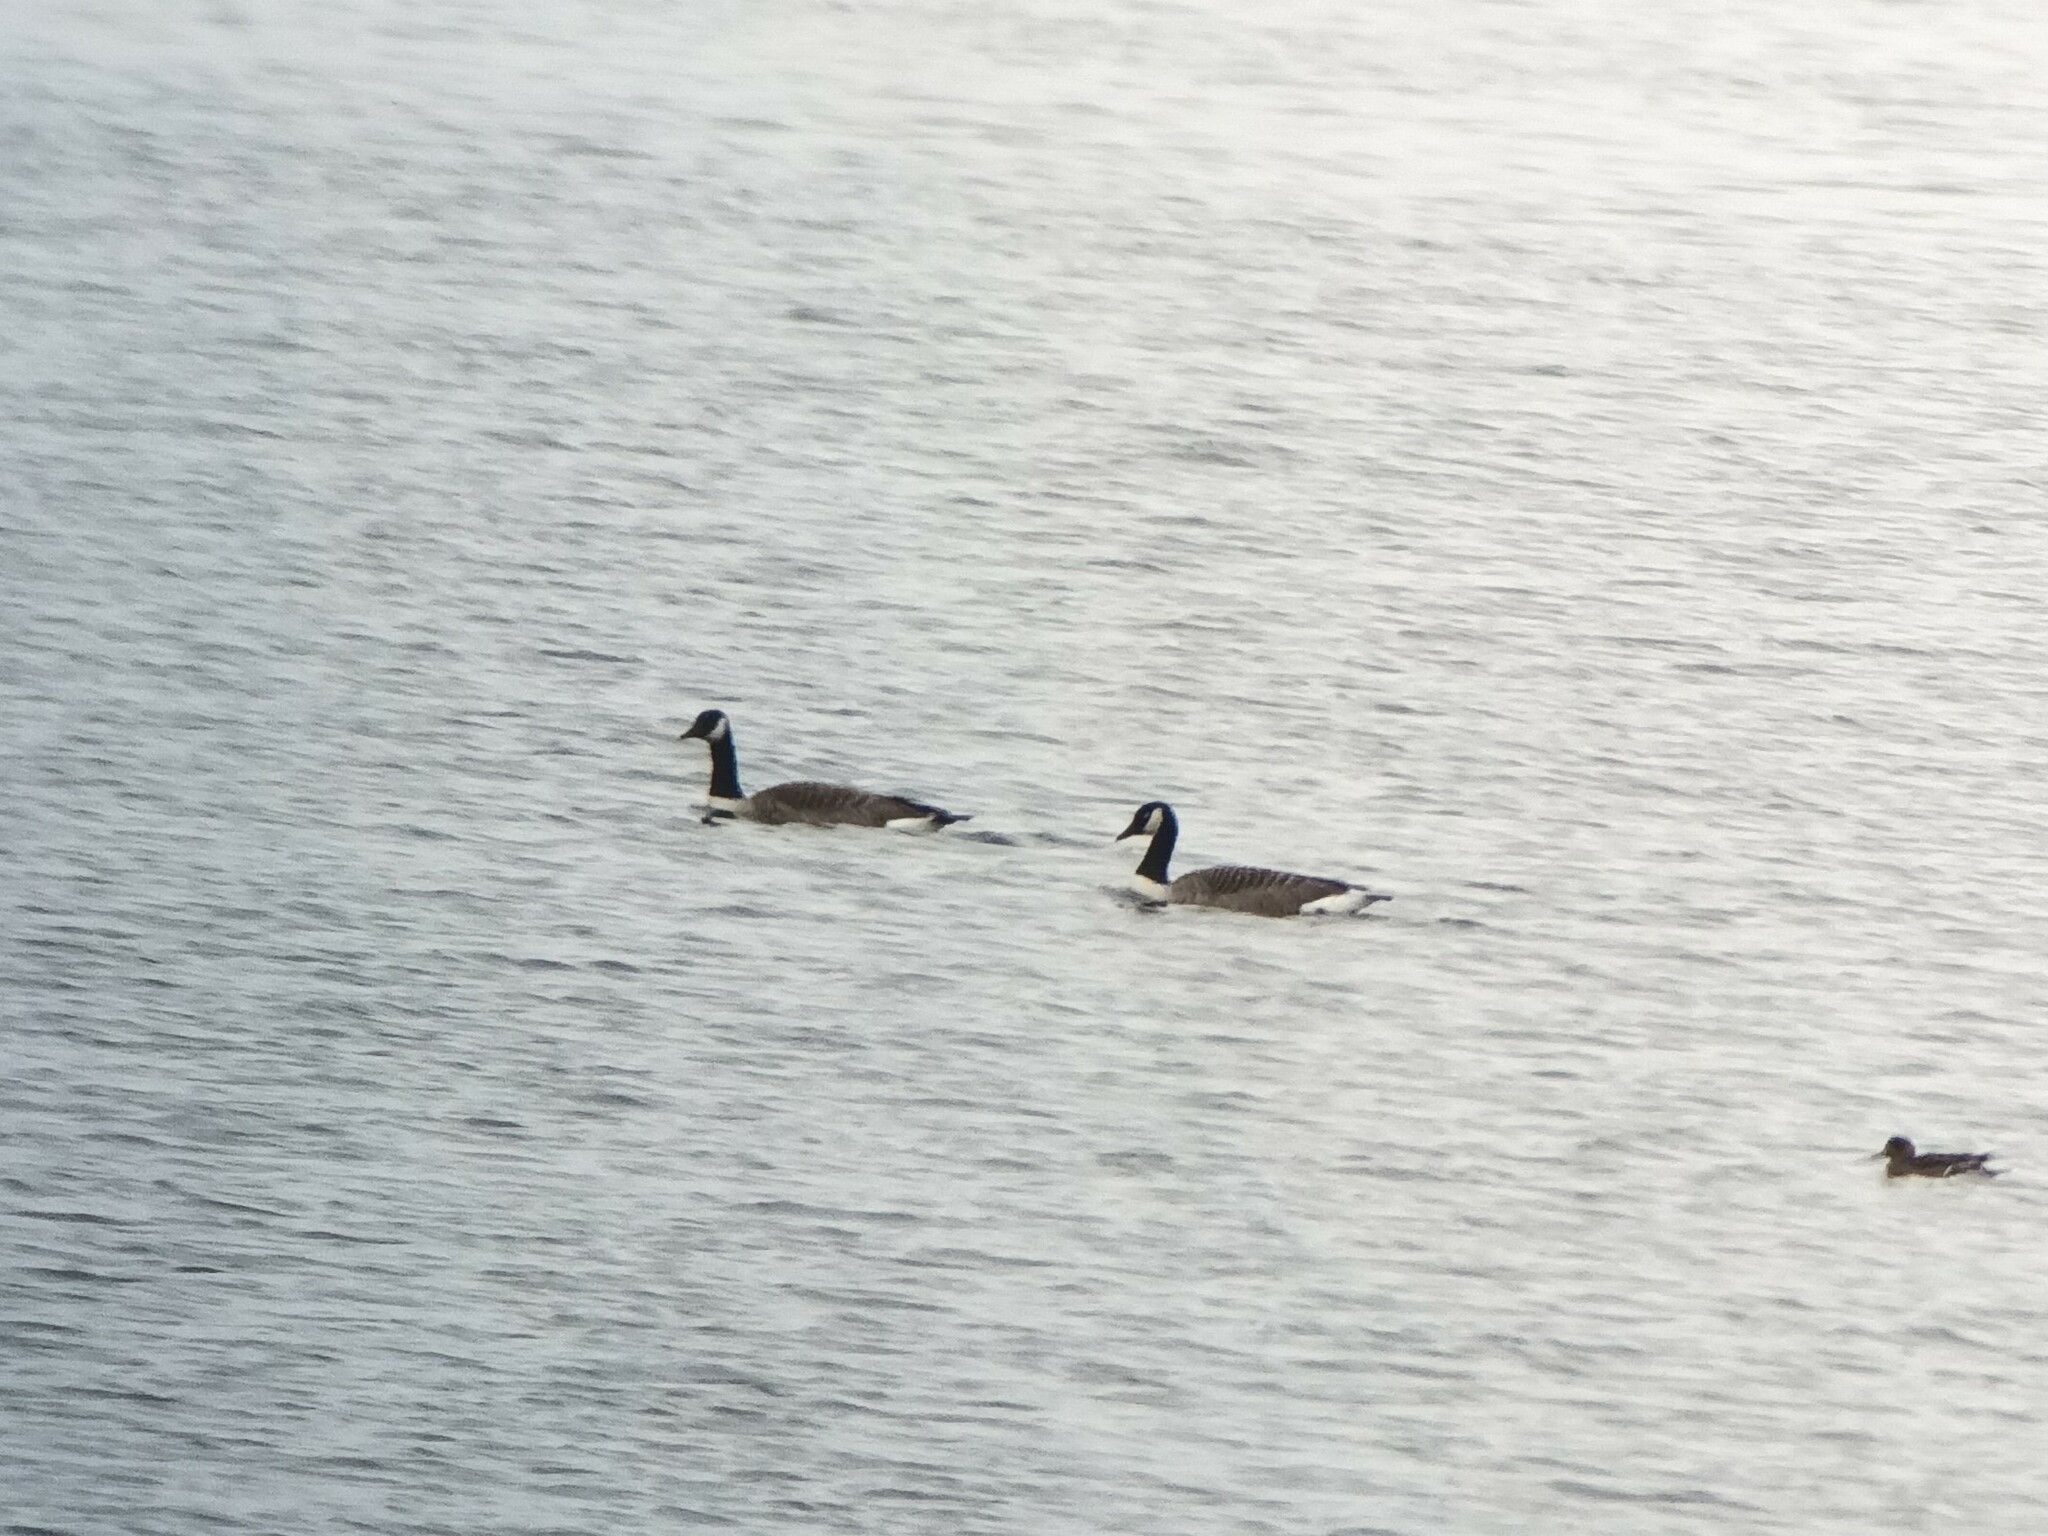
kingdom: Animalia
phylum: Chordata
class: Aves
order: Anseriformes
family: Anatidae
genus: Branta
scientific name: Branta canadensis
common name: Canada goose
